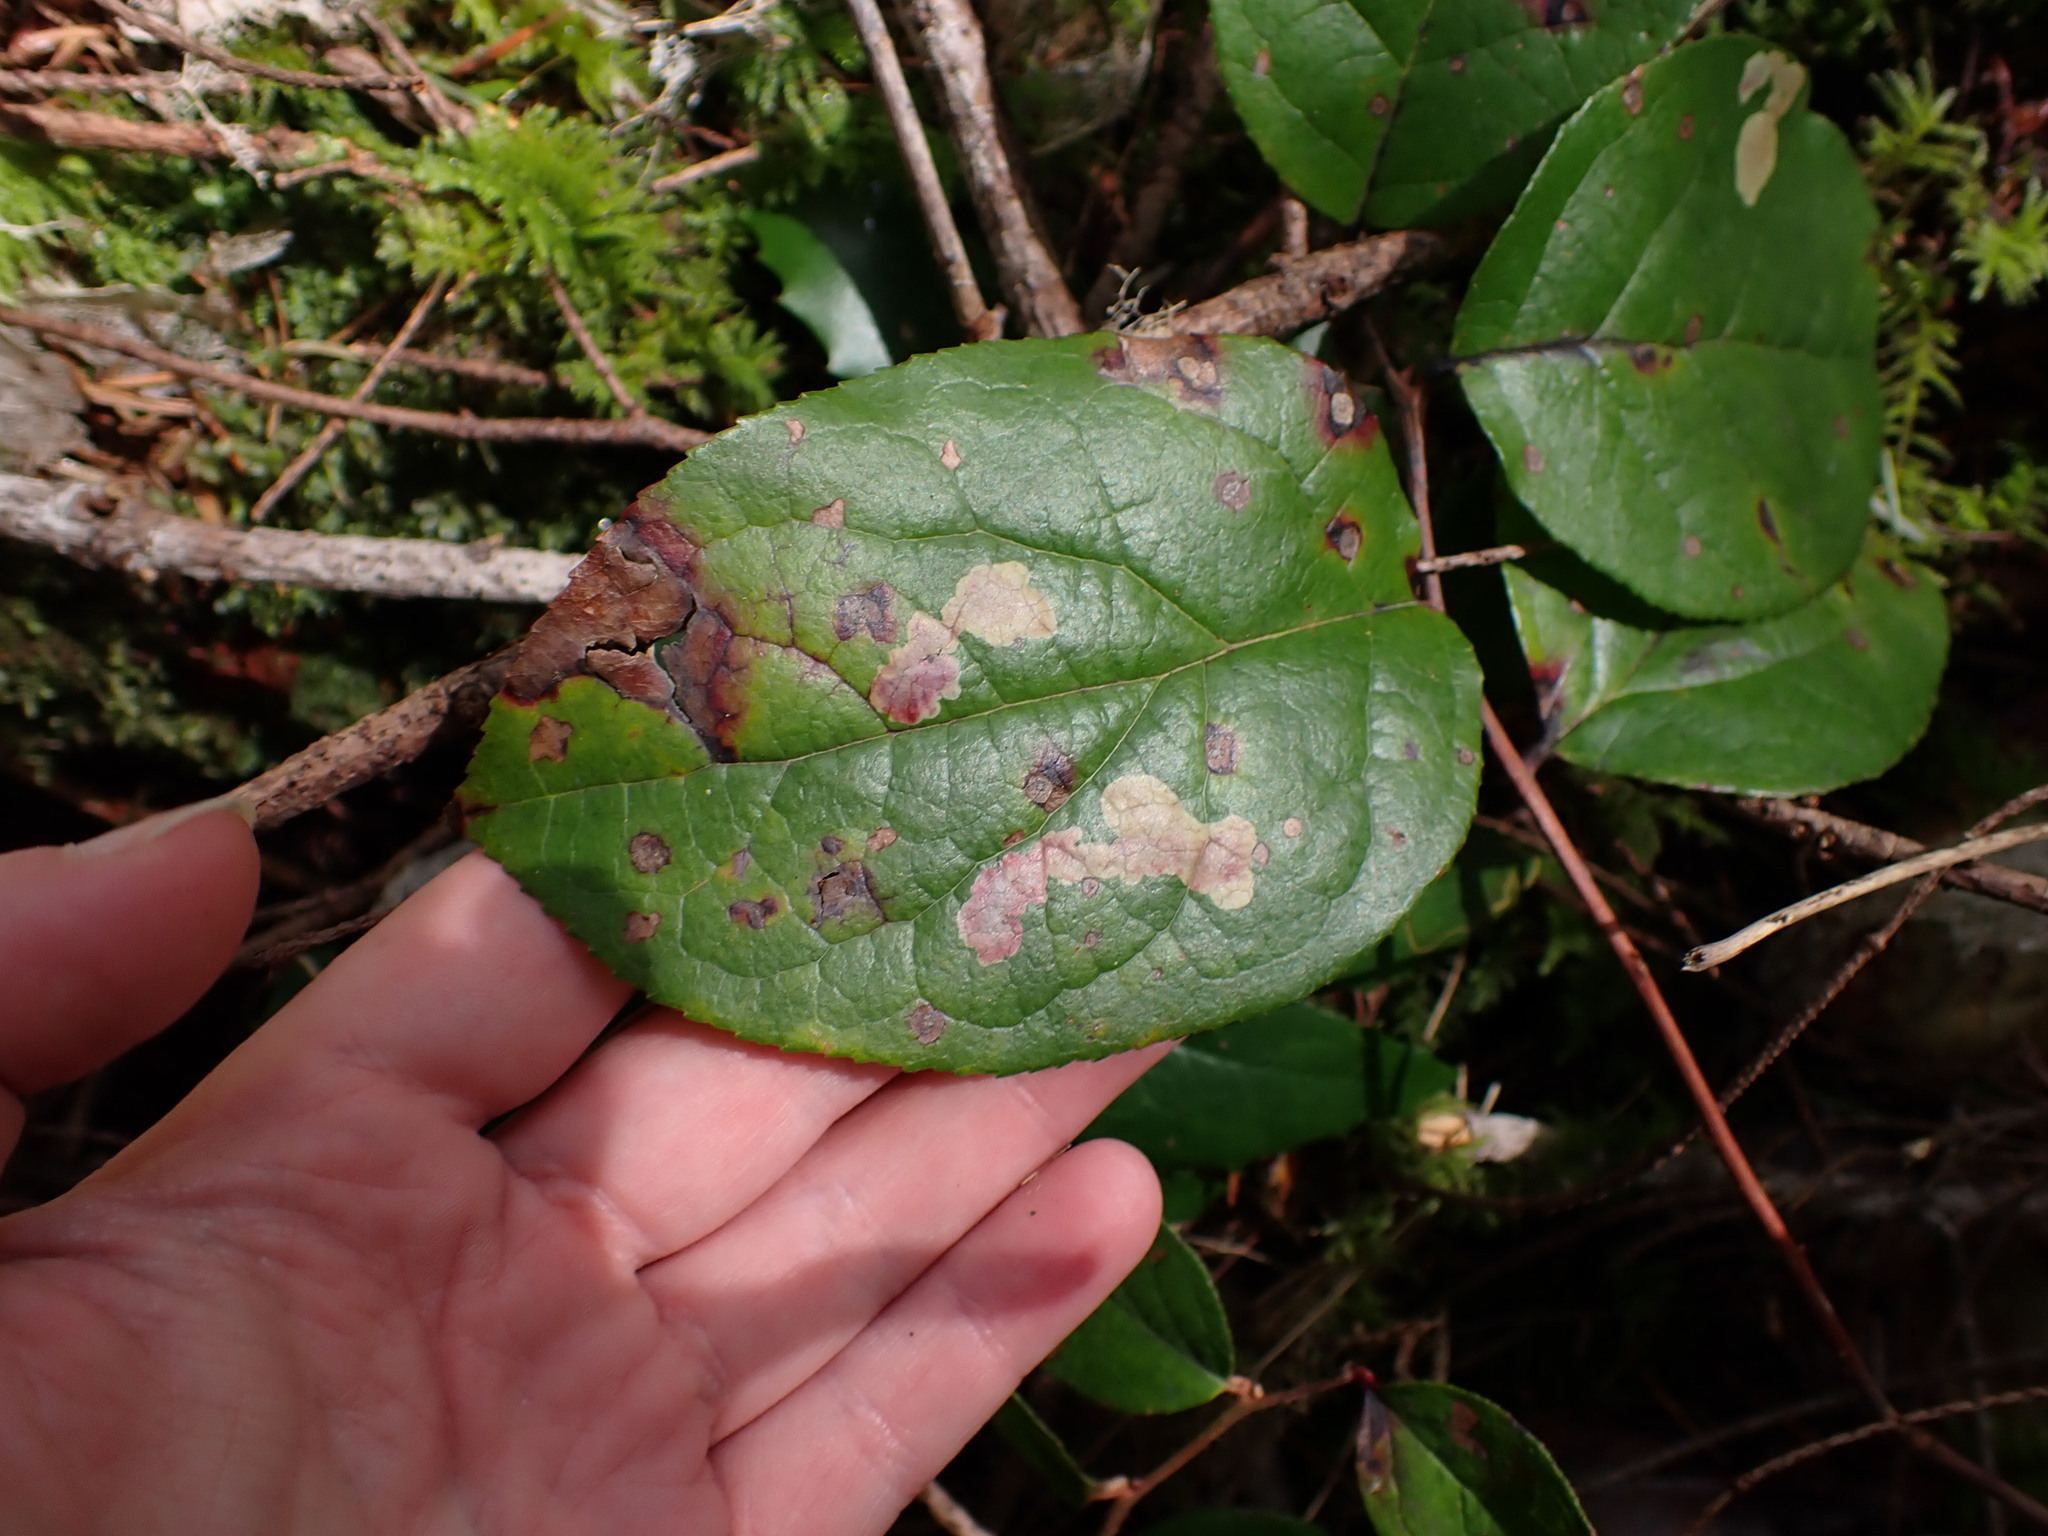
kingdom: Animalia
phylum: Arthropoda
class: Insecta
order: Lepidoptera
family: Gracillariidae
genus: Cameraria
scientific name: Cameraria gaultheriella
